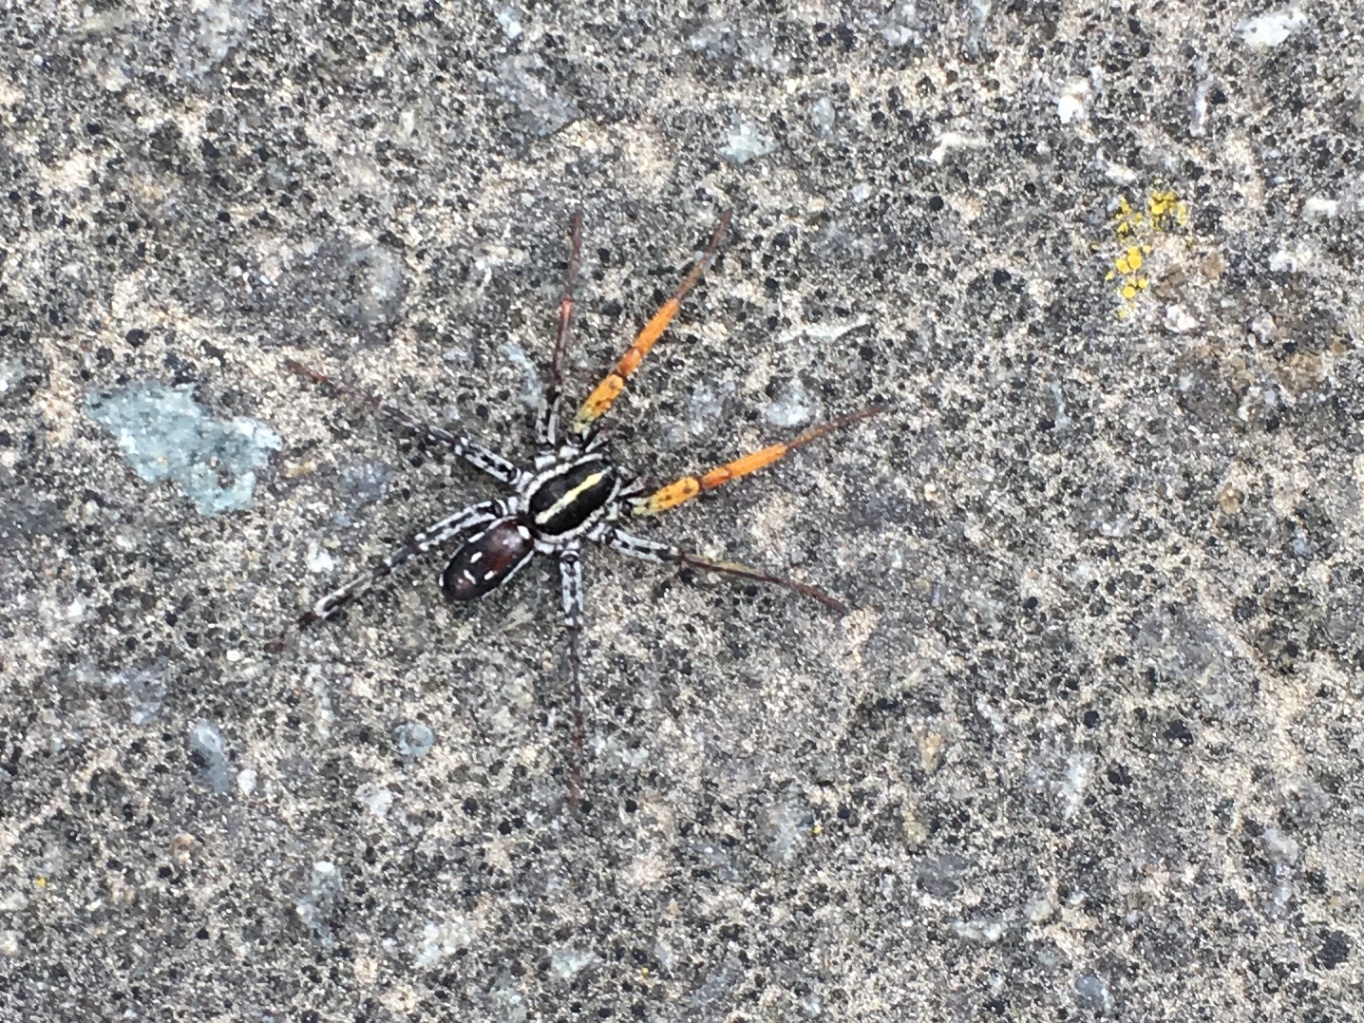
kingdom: Animalia
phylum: Arthropoda
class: Arachnida
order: Araneae
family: Corinnidae
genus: Nyssus
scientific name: Nyssus coloripes
